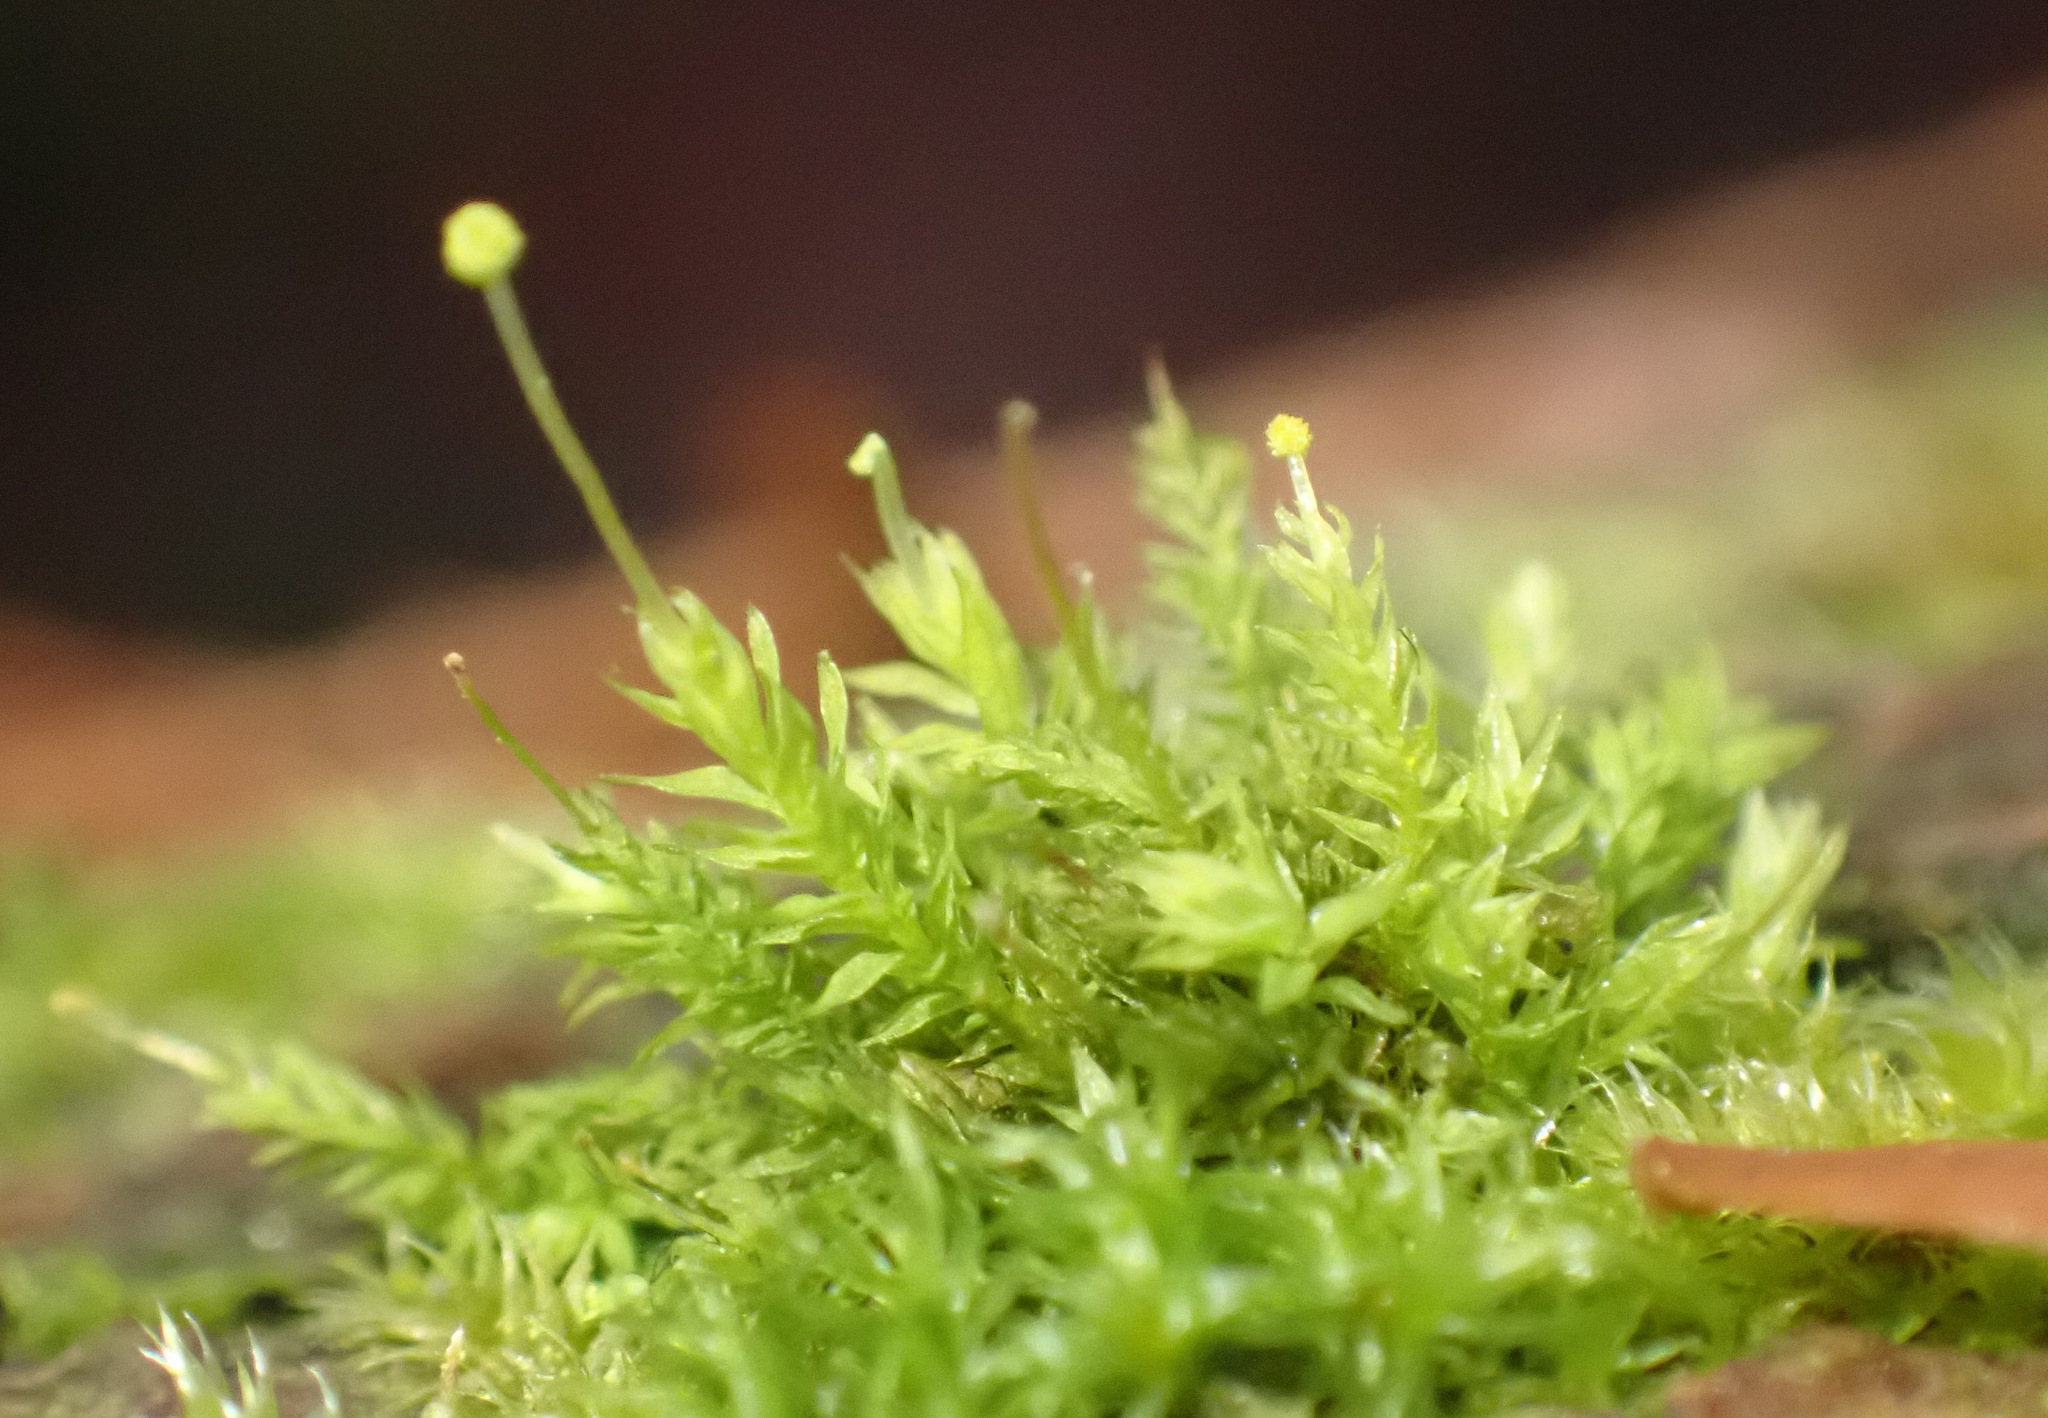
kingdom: Plantae
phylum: Bryophyta
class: Bryopsida
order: Aulacomniales
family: Aulacomniaceae
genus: Aulacomnium
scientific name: Aulacomnium androgynum
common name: Little groove moss
